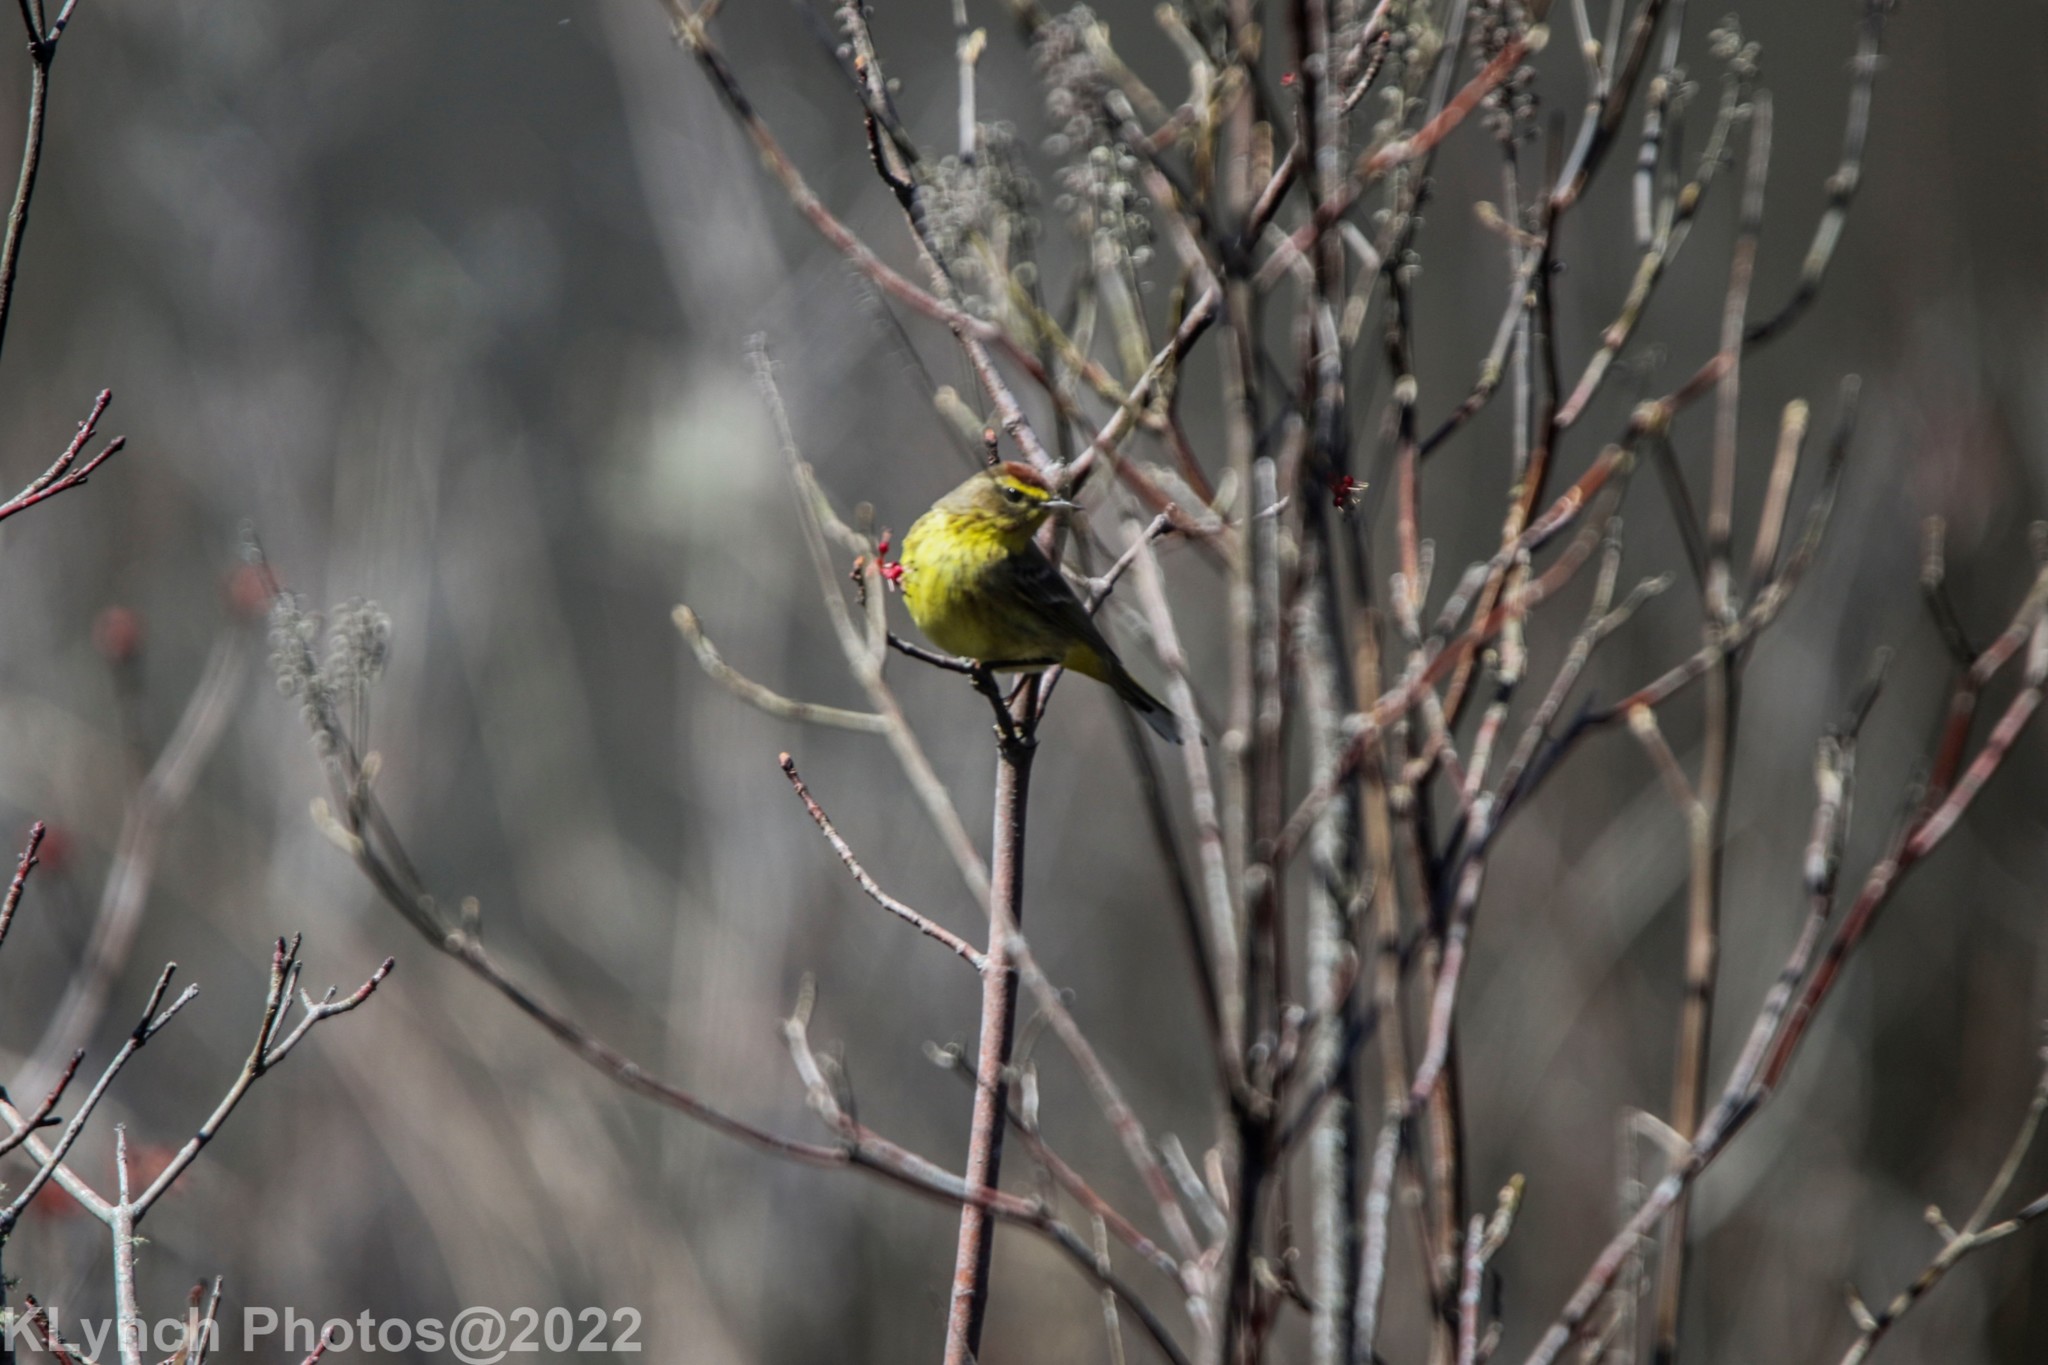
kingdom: Animalia
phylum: Chordata
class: Aves
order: Passeriformes
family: Parulidae
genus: Setophaga
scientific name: Setophaga palmarum
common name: Palm warbler
